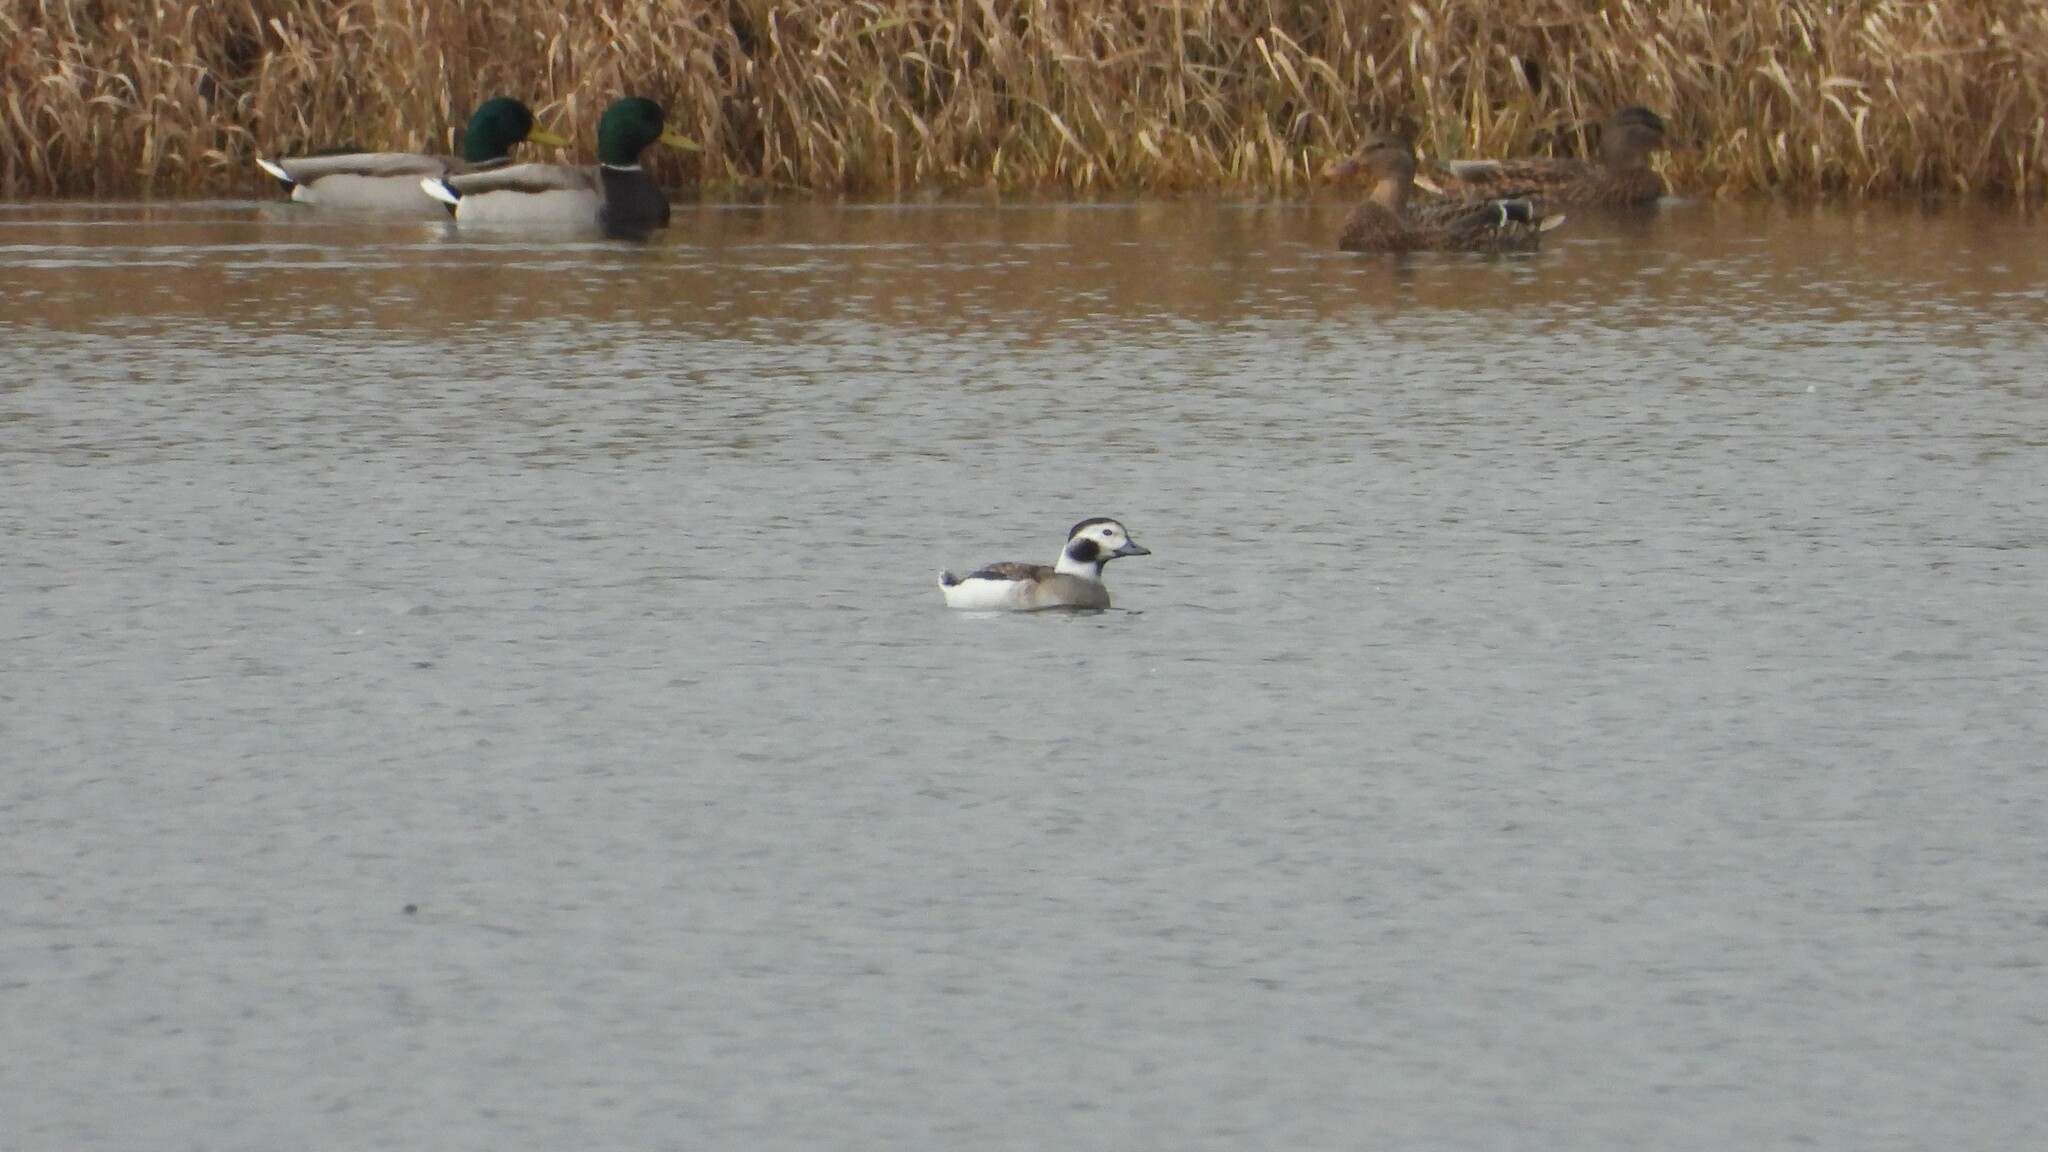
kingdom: Animalia
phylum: Chordata
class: Aves
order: Anseriformes
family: Anatidae
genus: Clangula
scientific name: Clangula hyemalis
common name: Long-tailed duck
